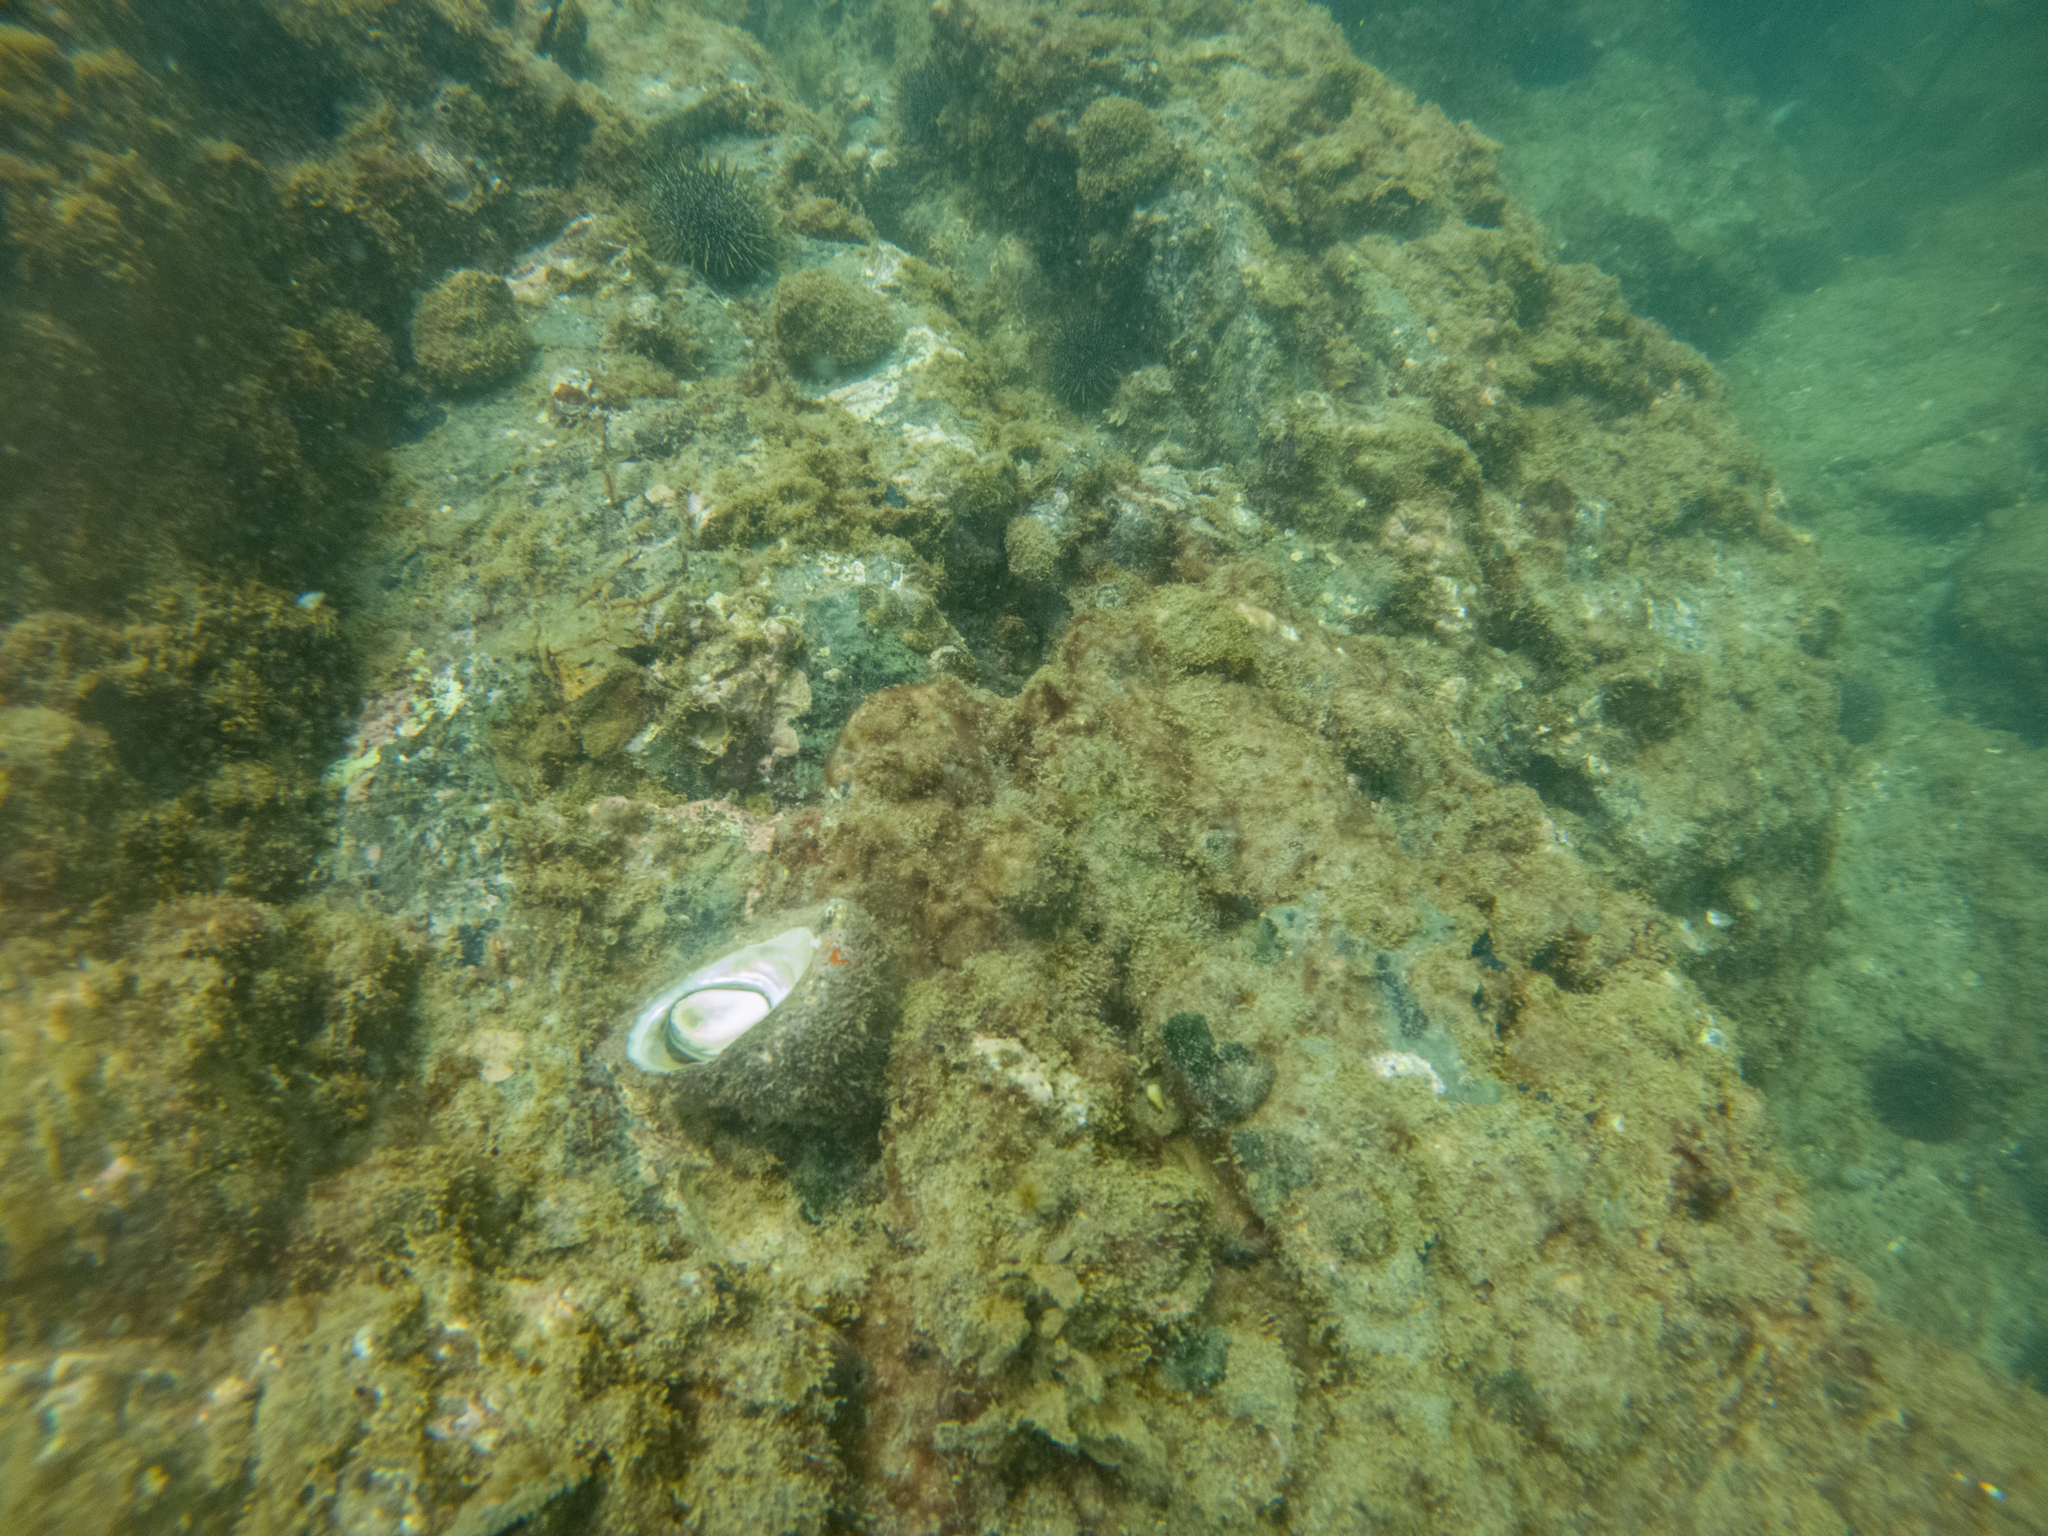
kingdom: Animalia
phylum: Mollusca
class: Gastropoda
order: Trochida
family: Turbinidae
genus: Cookia
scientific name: Cookia sulcata
